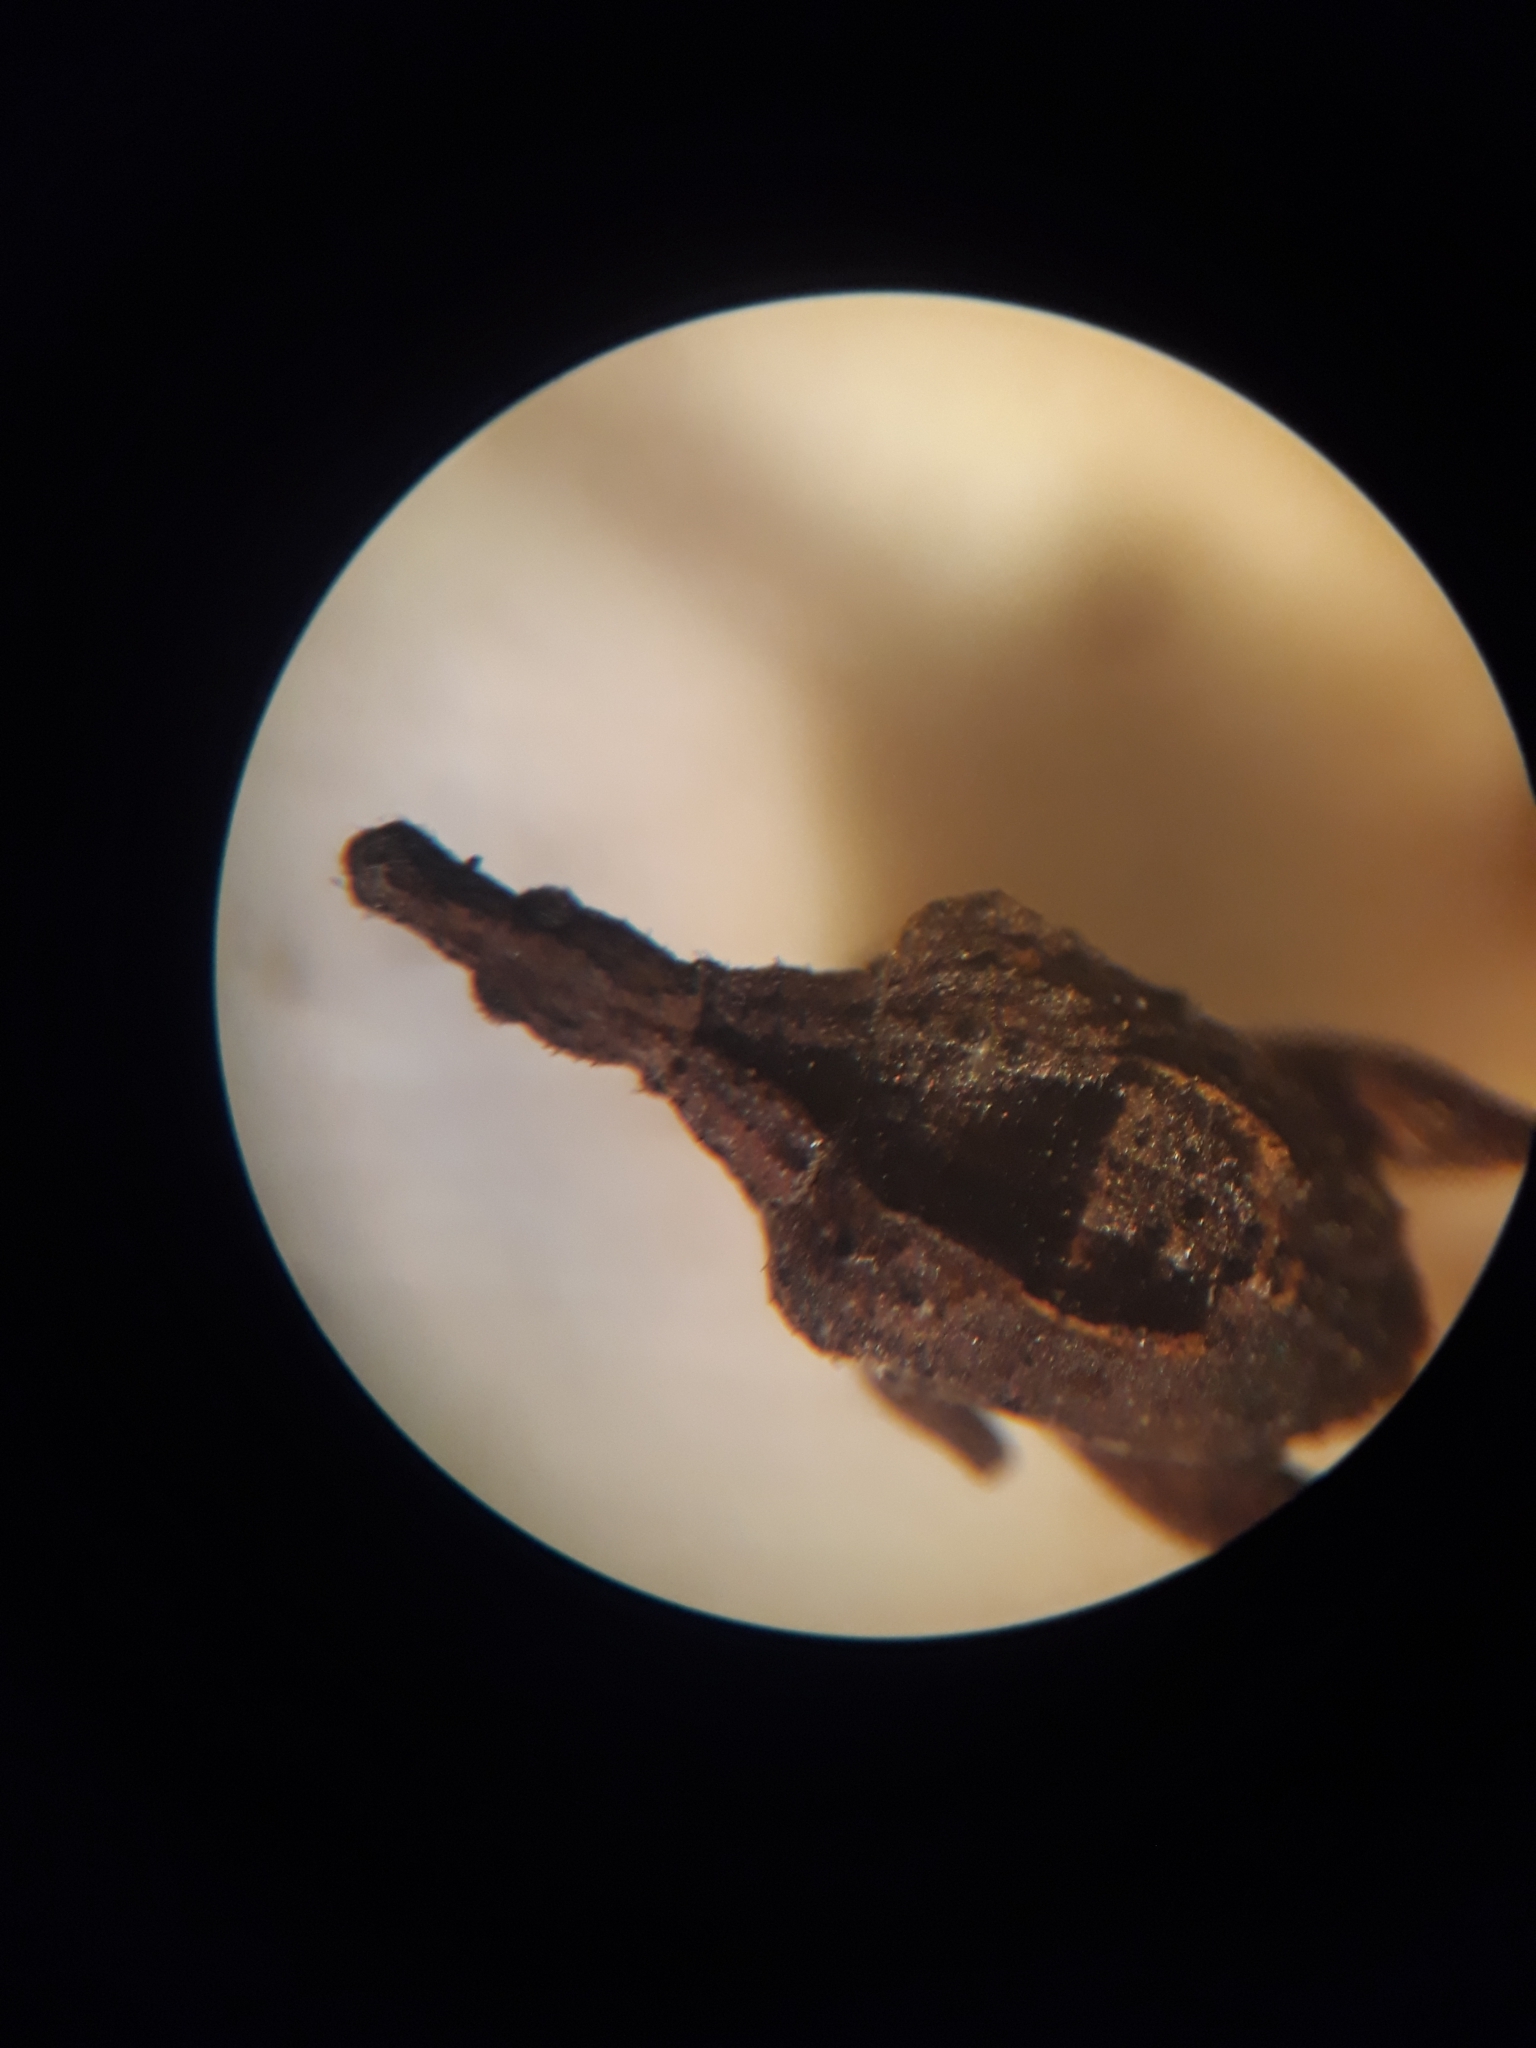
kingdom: Animalia
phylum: Arthropoda
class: Insecta
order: Coleoptera
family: Curculionidae
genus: Stephanorrhynchus
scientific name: Stephanorrhynchus crassus
